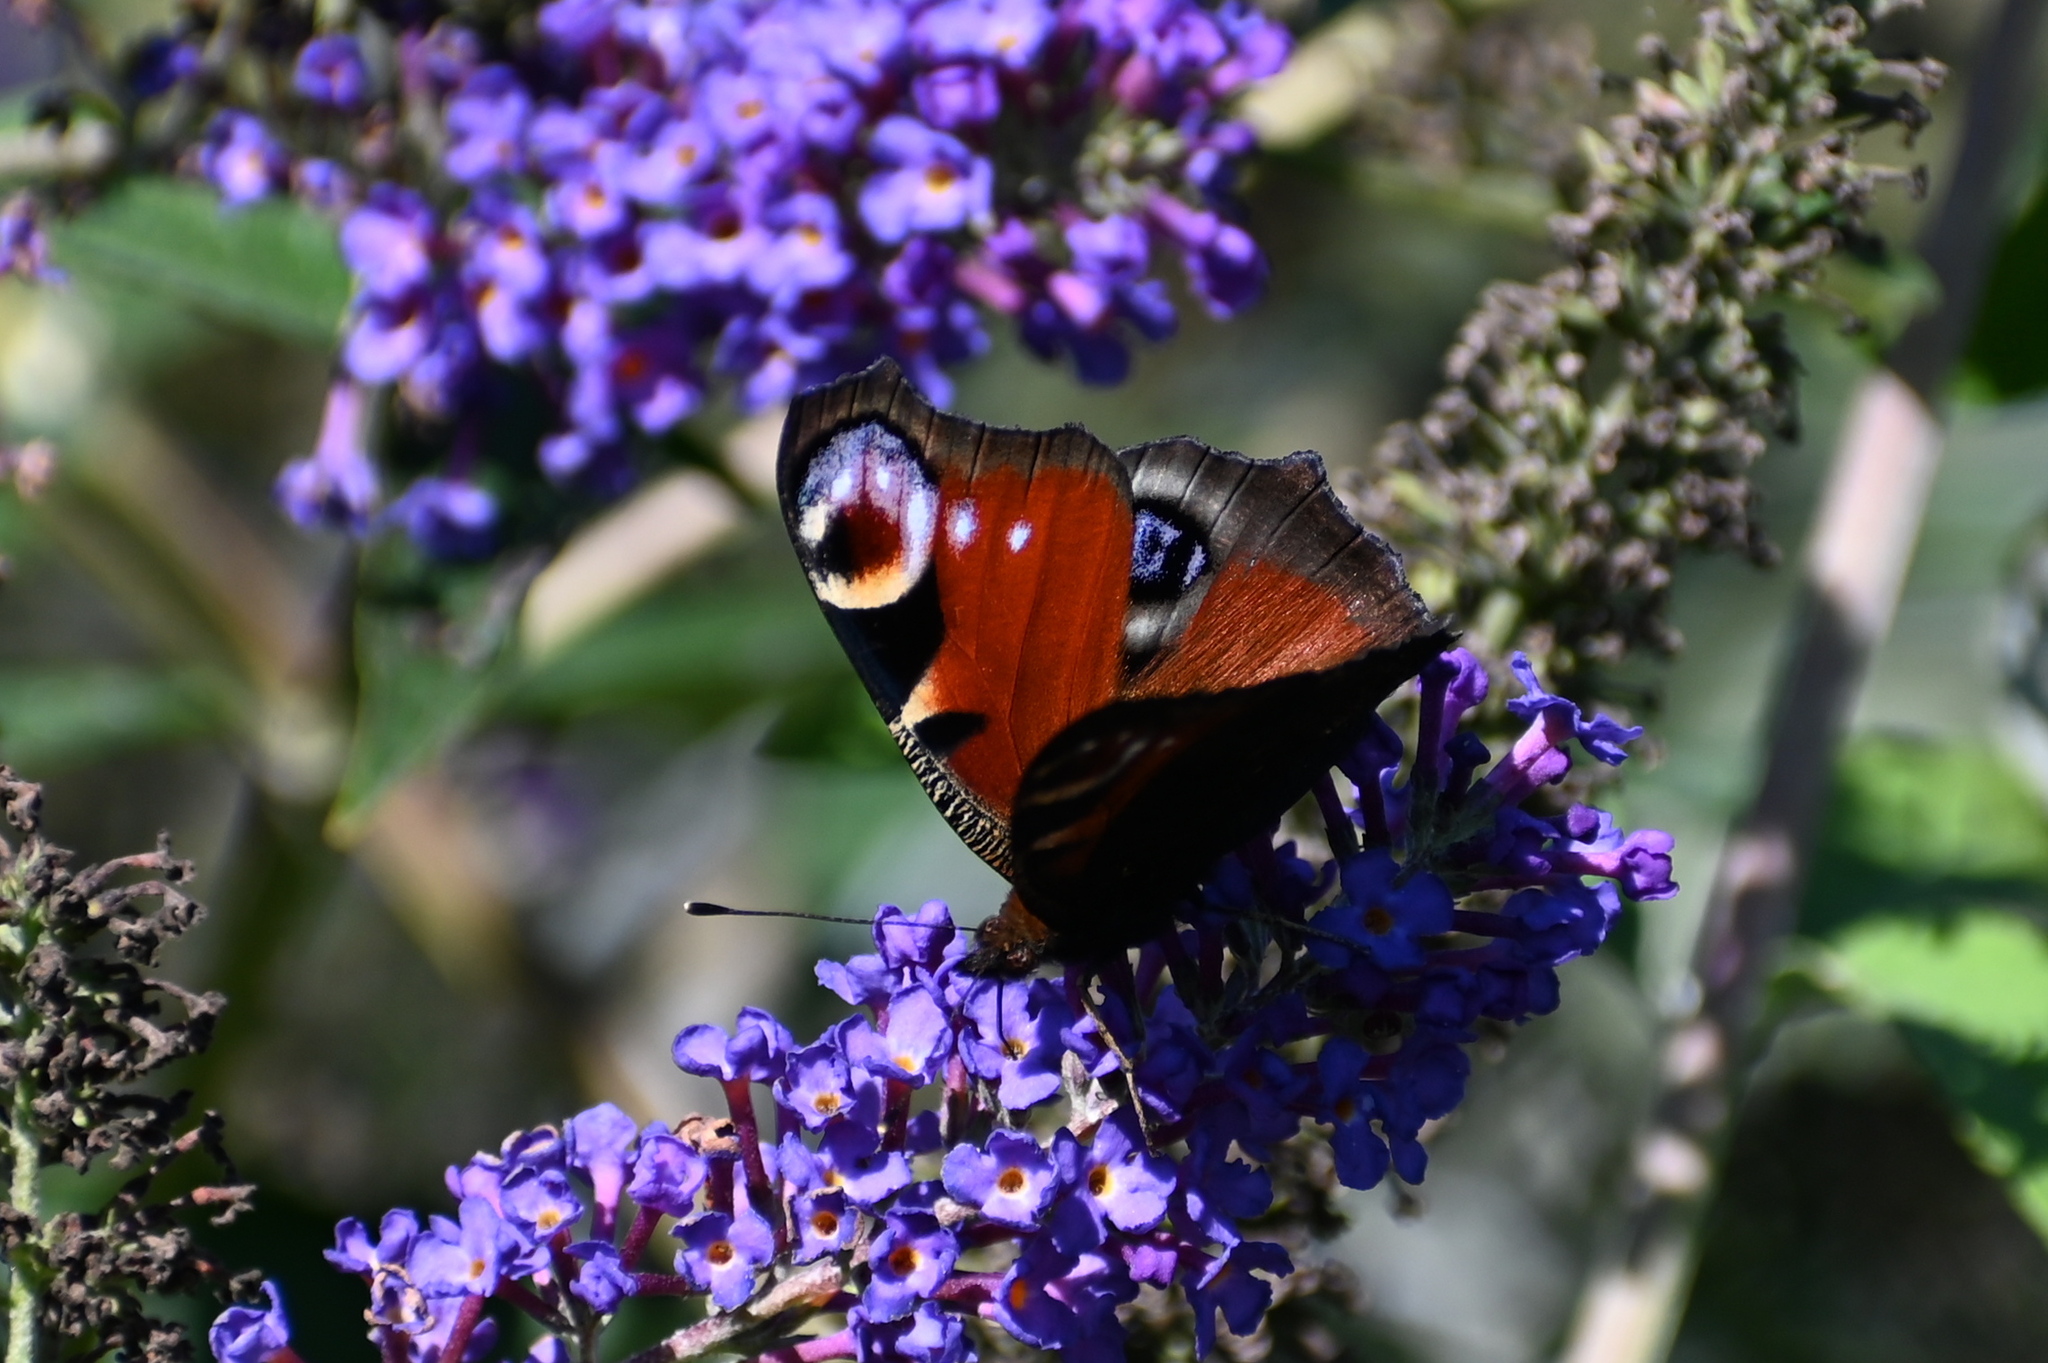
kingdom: Animalia
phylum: Arthropoda
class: Insecta
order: Lepidoptera
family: Nymphalidae
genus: Aglais
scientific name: Aglais io
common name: Peacock
